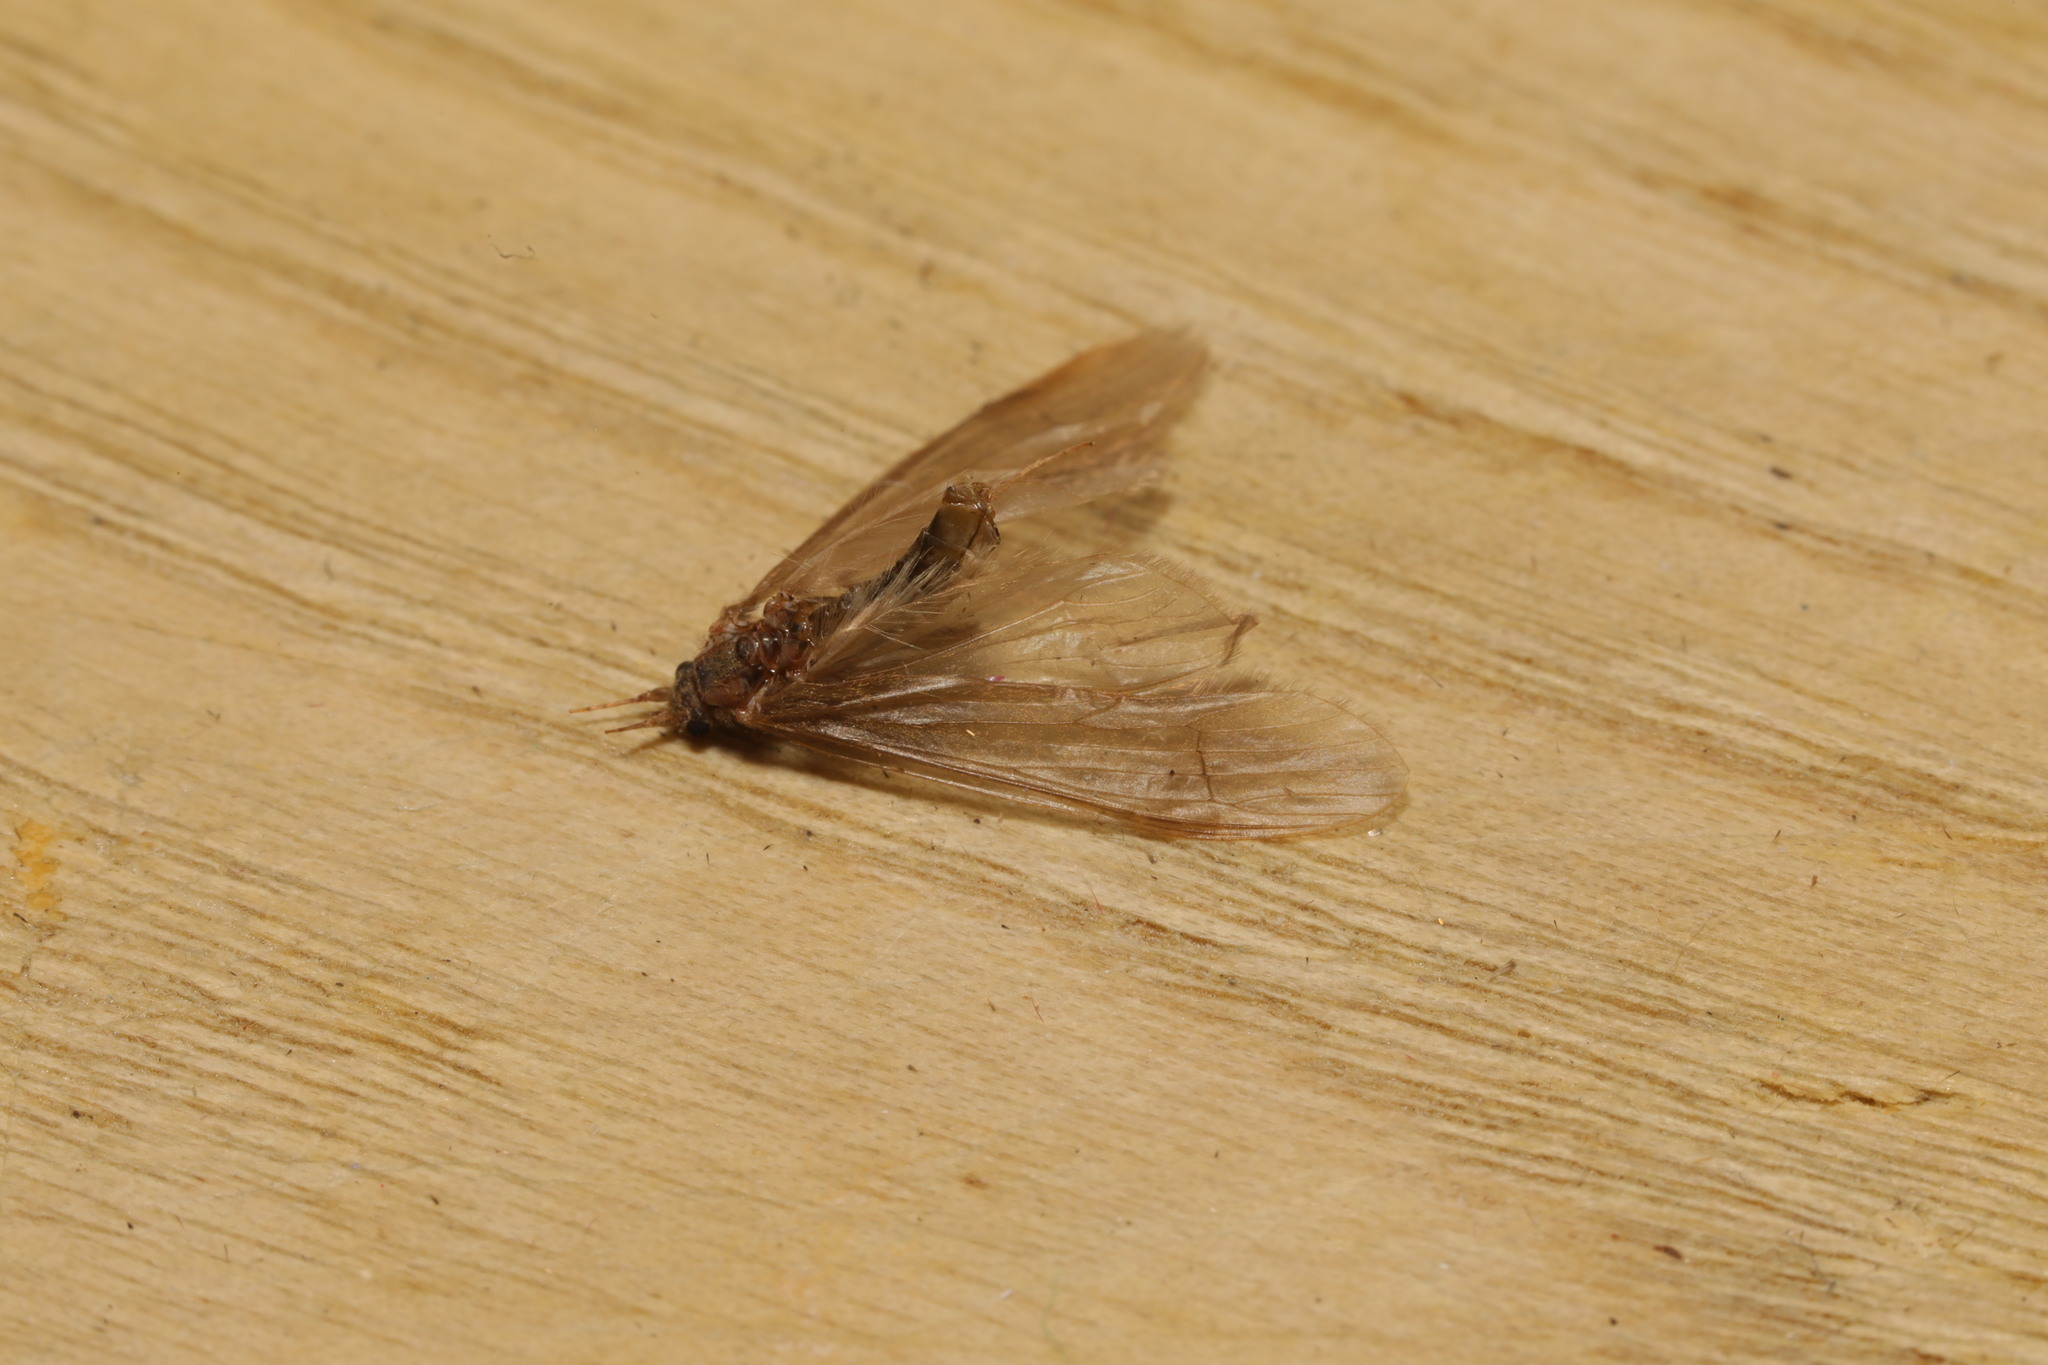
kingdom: Animalia
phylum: Arthropoda
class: Insecta
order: Trichoptera
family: Leptoceridae
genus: Oecetis
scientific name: Oecetis ochracea
